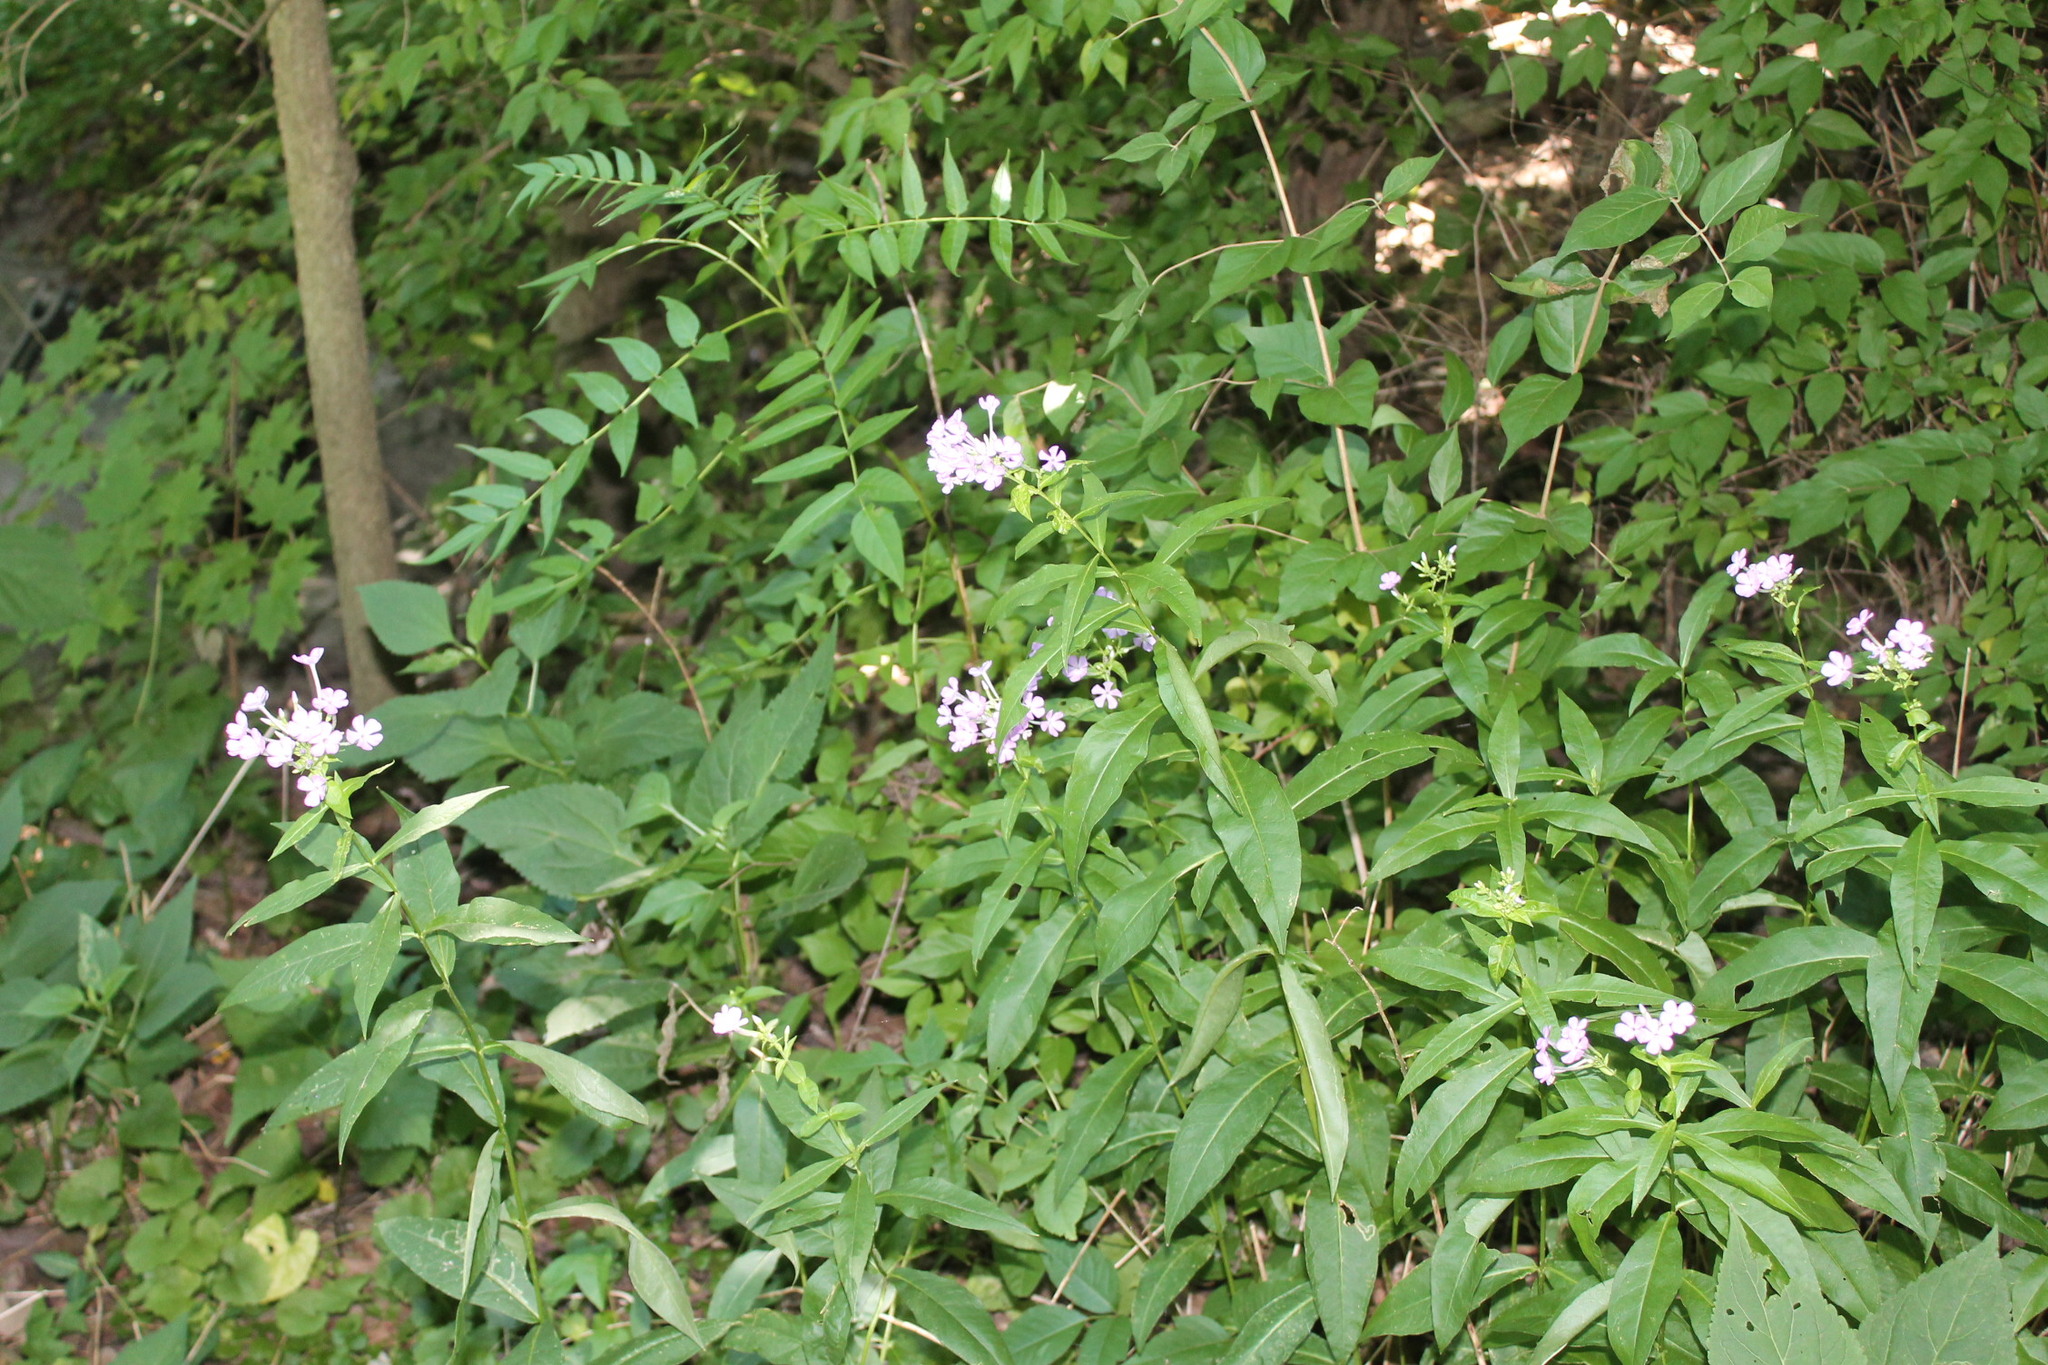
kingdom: Plantae
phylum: Tracheophyta
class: Magnoliopsida
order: Ericales
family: Polemoniaceae
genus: Phlox
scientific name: Phlox paniculata
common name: Fall phlox
